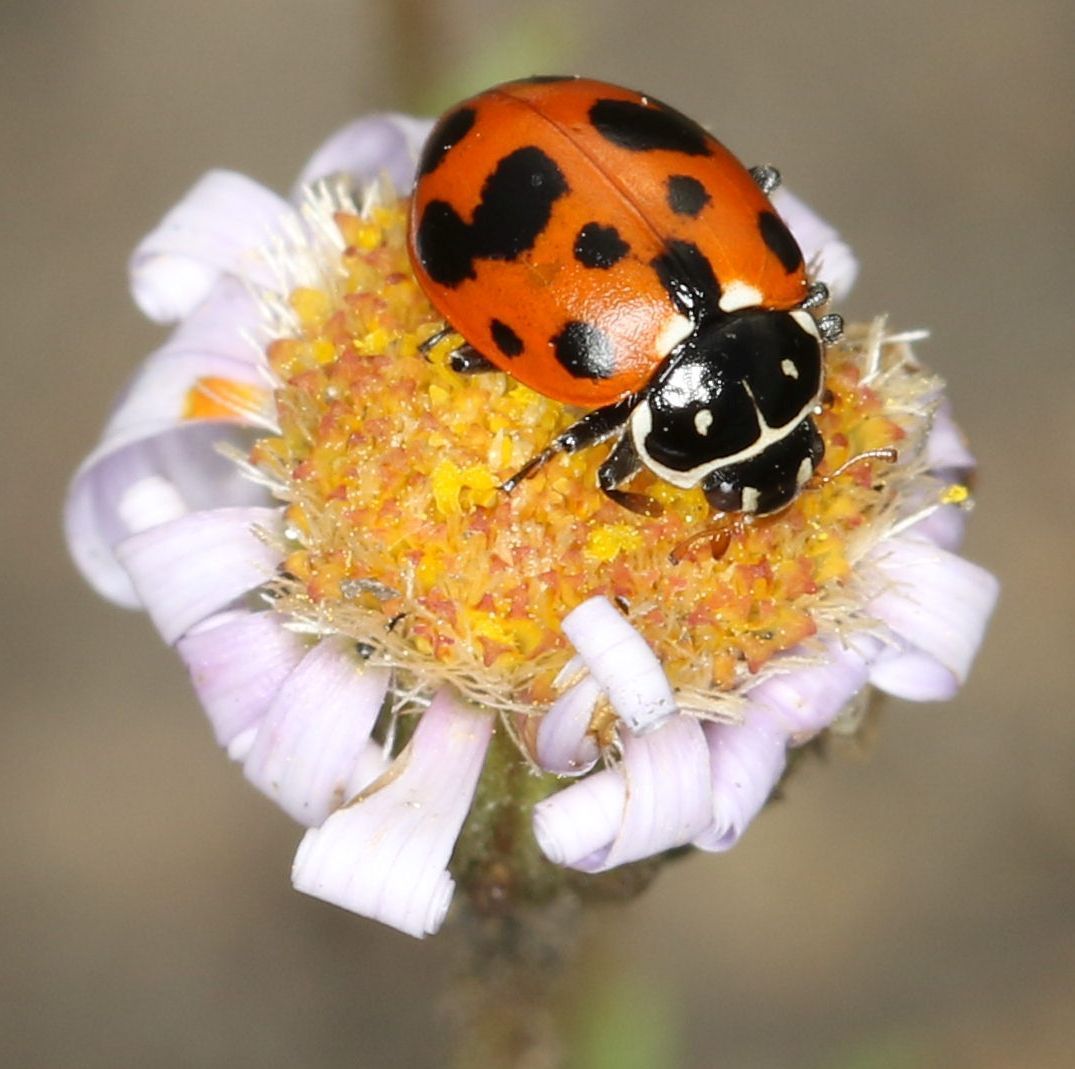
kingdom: Animalia
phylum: Arthropoda
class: Insecta
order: Coleoptera
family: Coccinellidae
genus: Hippodamia
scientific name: Hippodamia variegata
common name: Ladybird beetle
